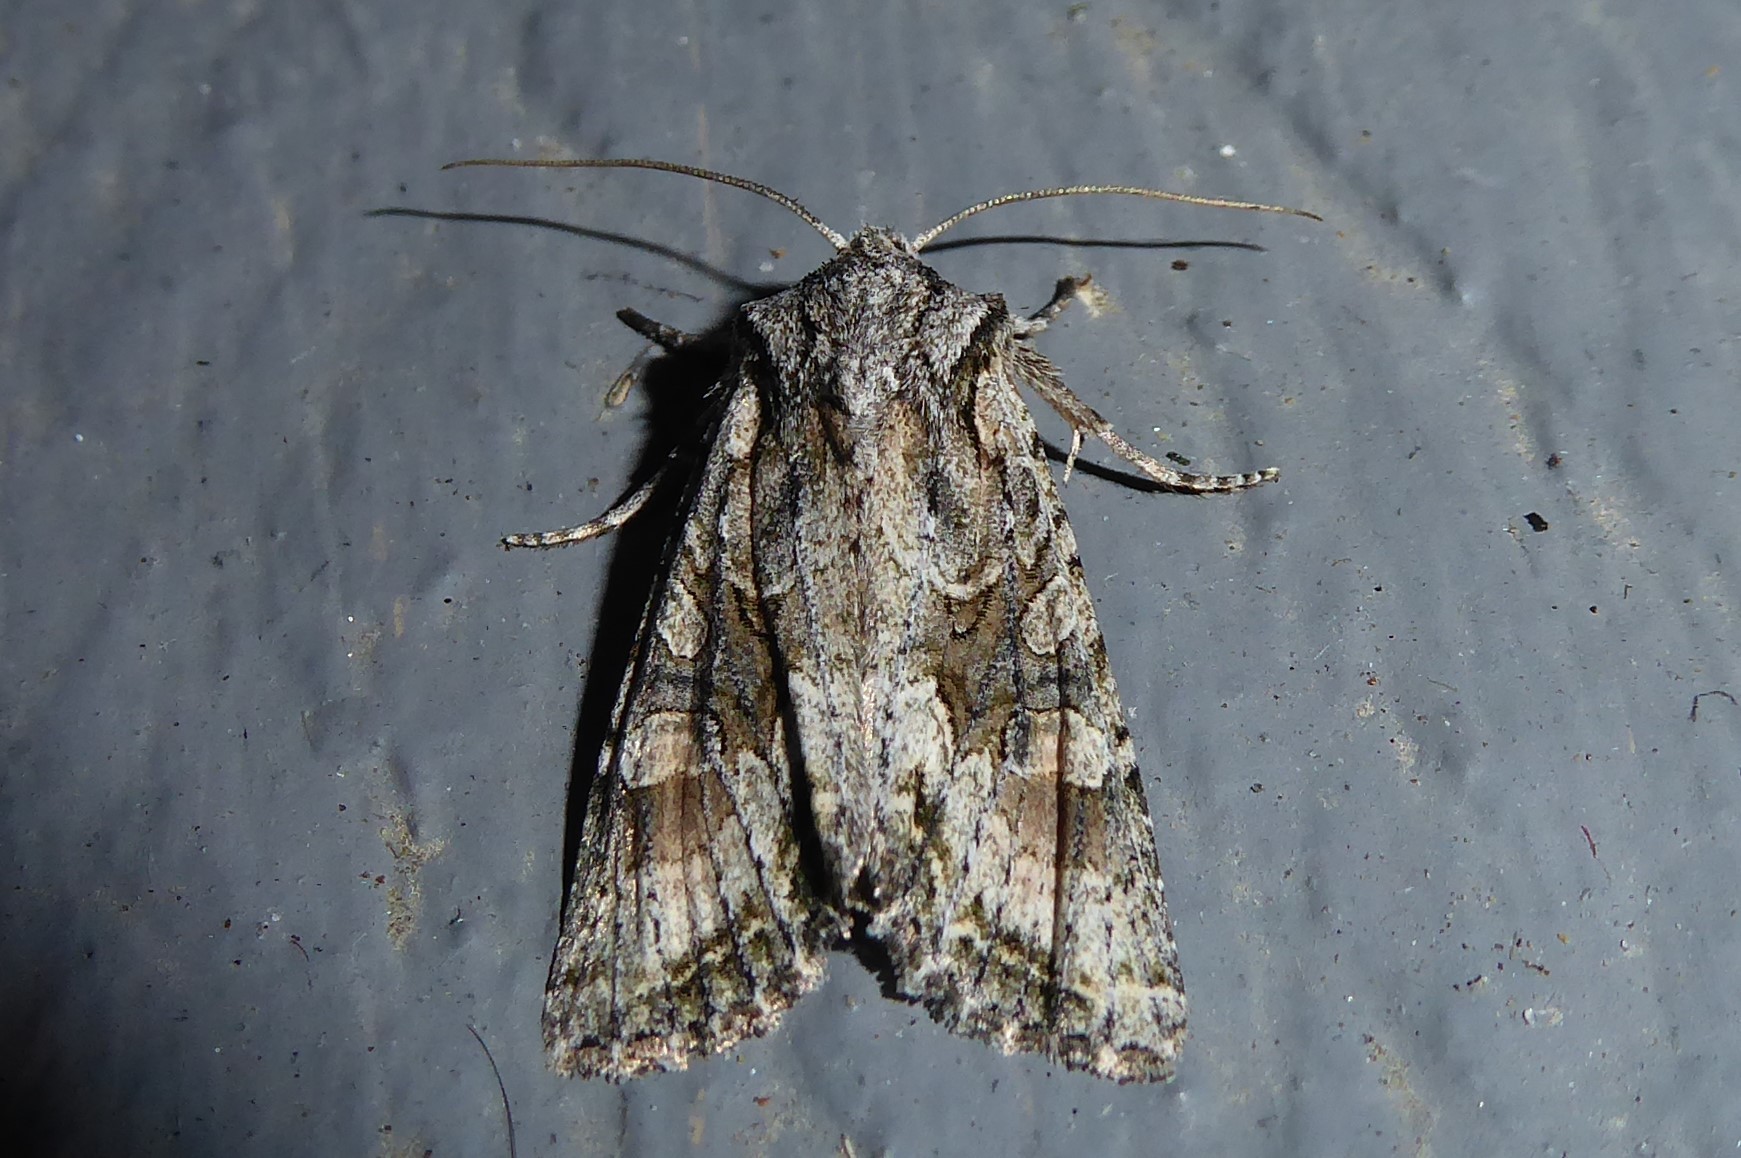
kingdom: Animalia
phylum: Arthropoda
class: Insecta
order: Lepidoptera
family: Noctuidae
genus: Ichneutica
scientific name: Ichneutica mutans
